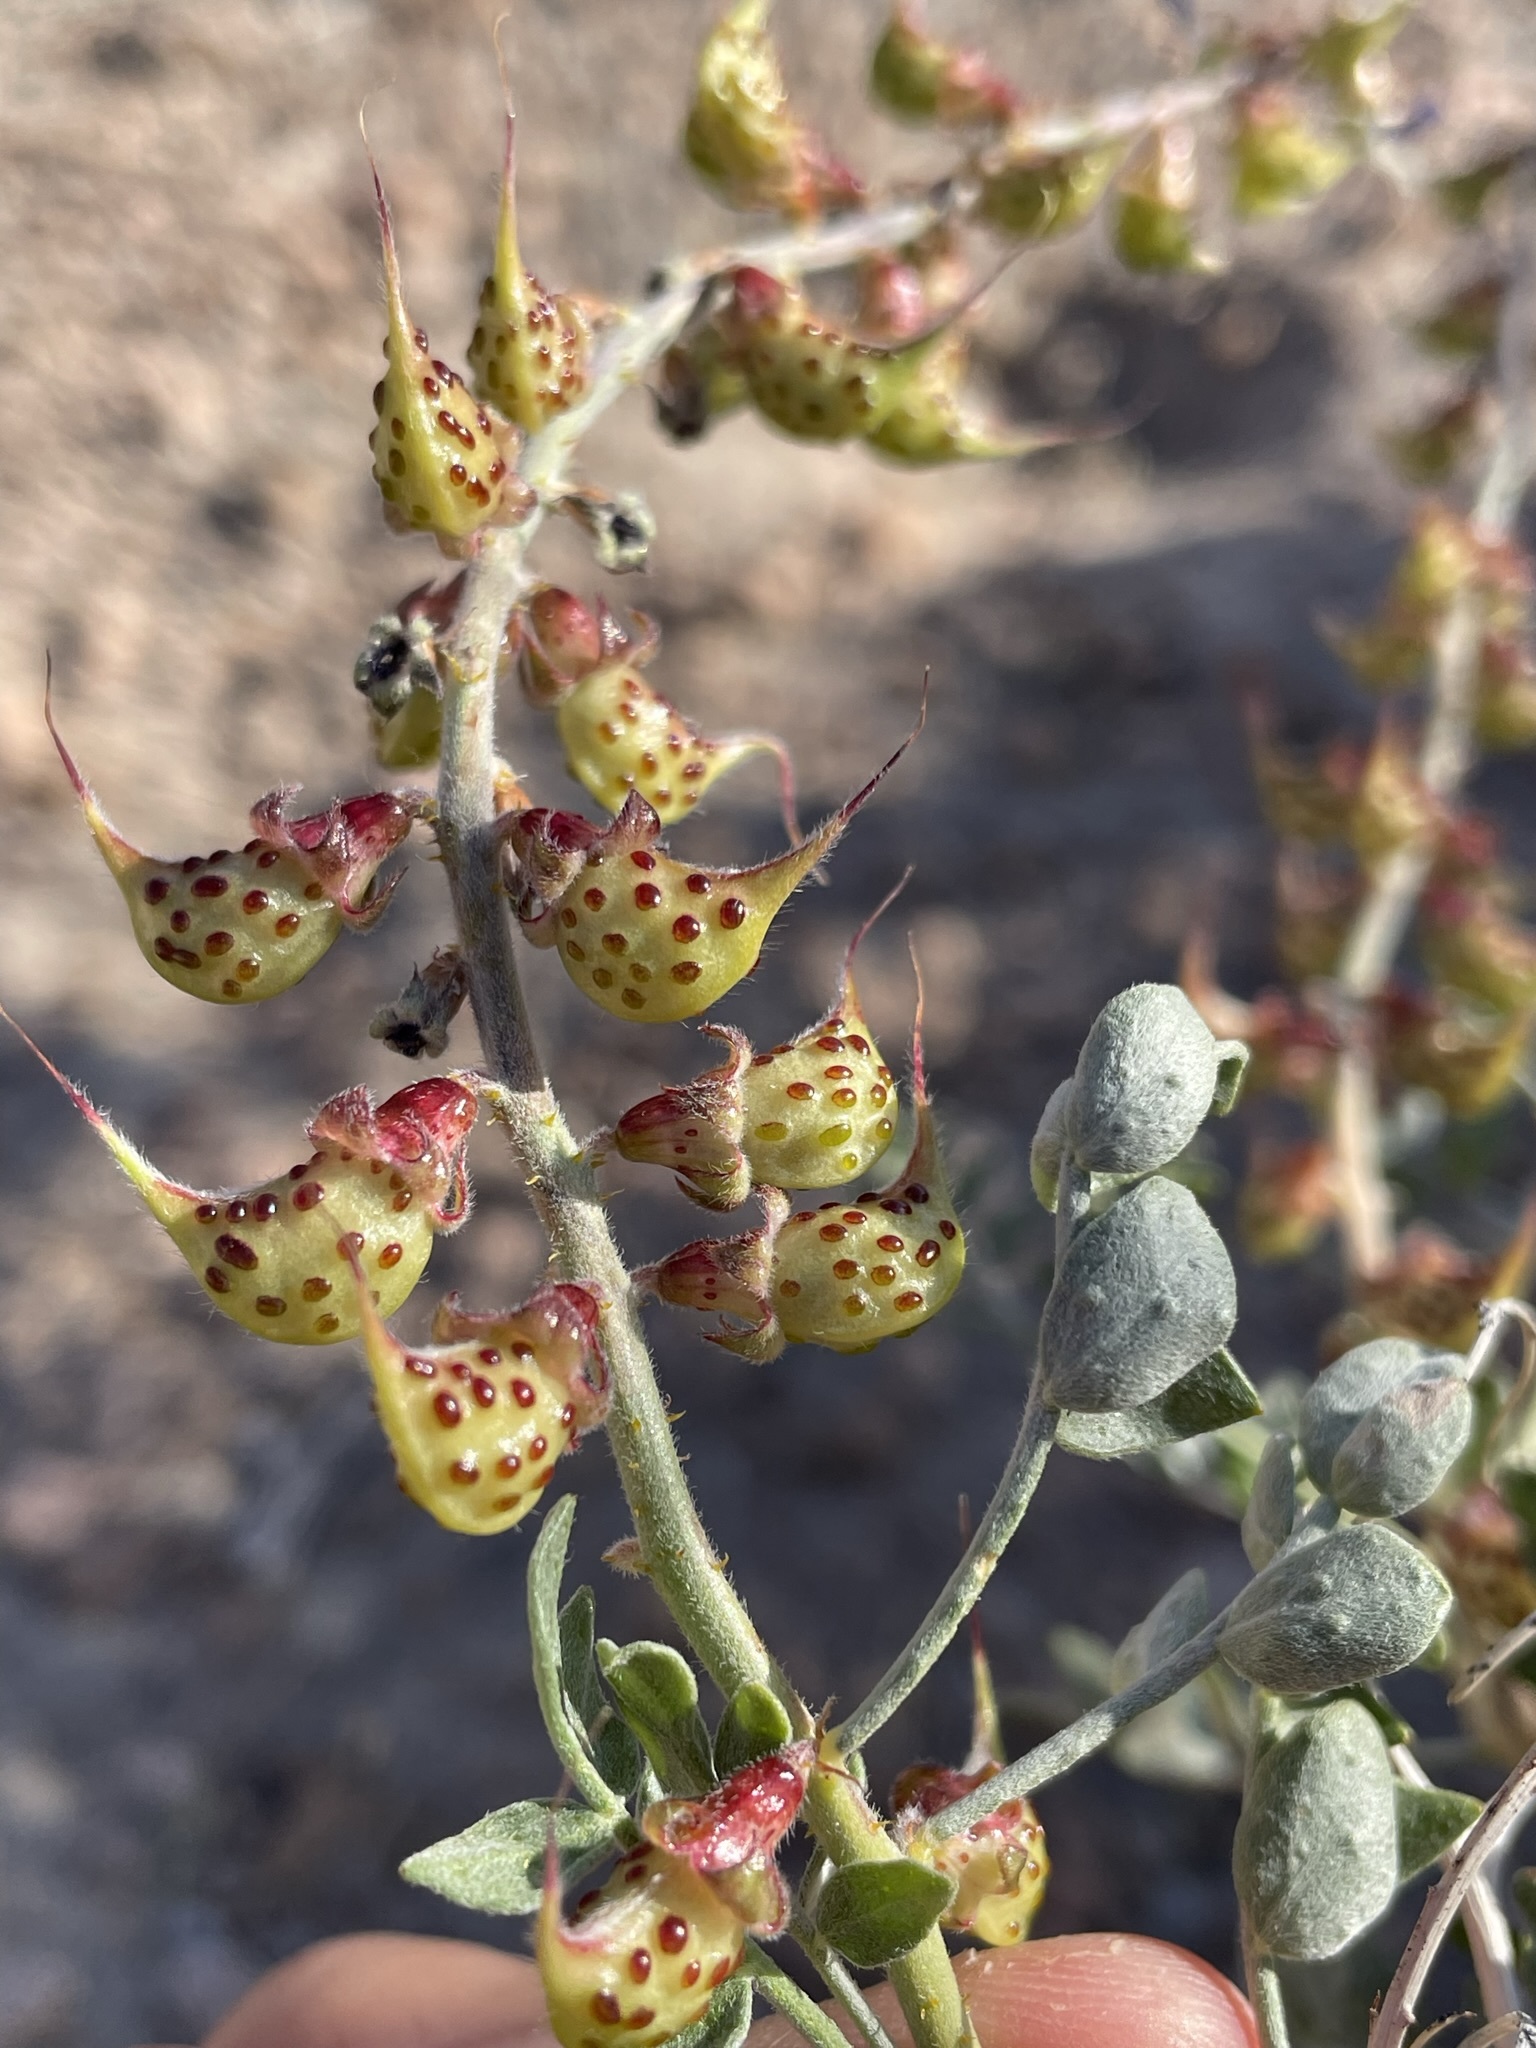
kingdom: Plantae
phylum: Tracheophyta
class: Magnoliopsida
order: Fabales
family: Fabaceae
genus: Psorothamnus
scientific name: Psorothamnus arborescens
